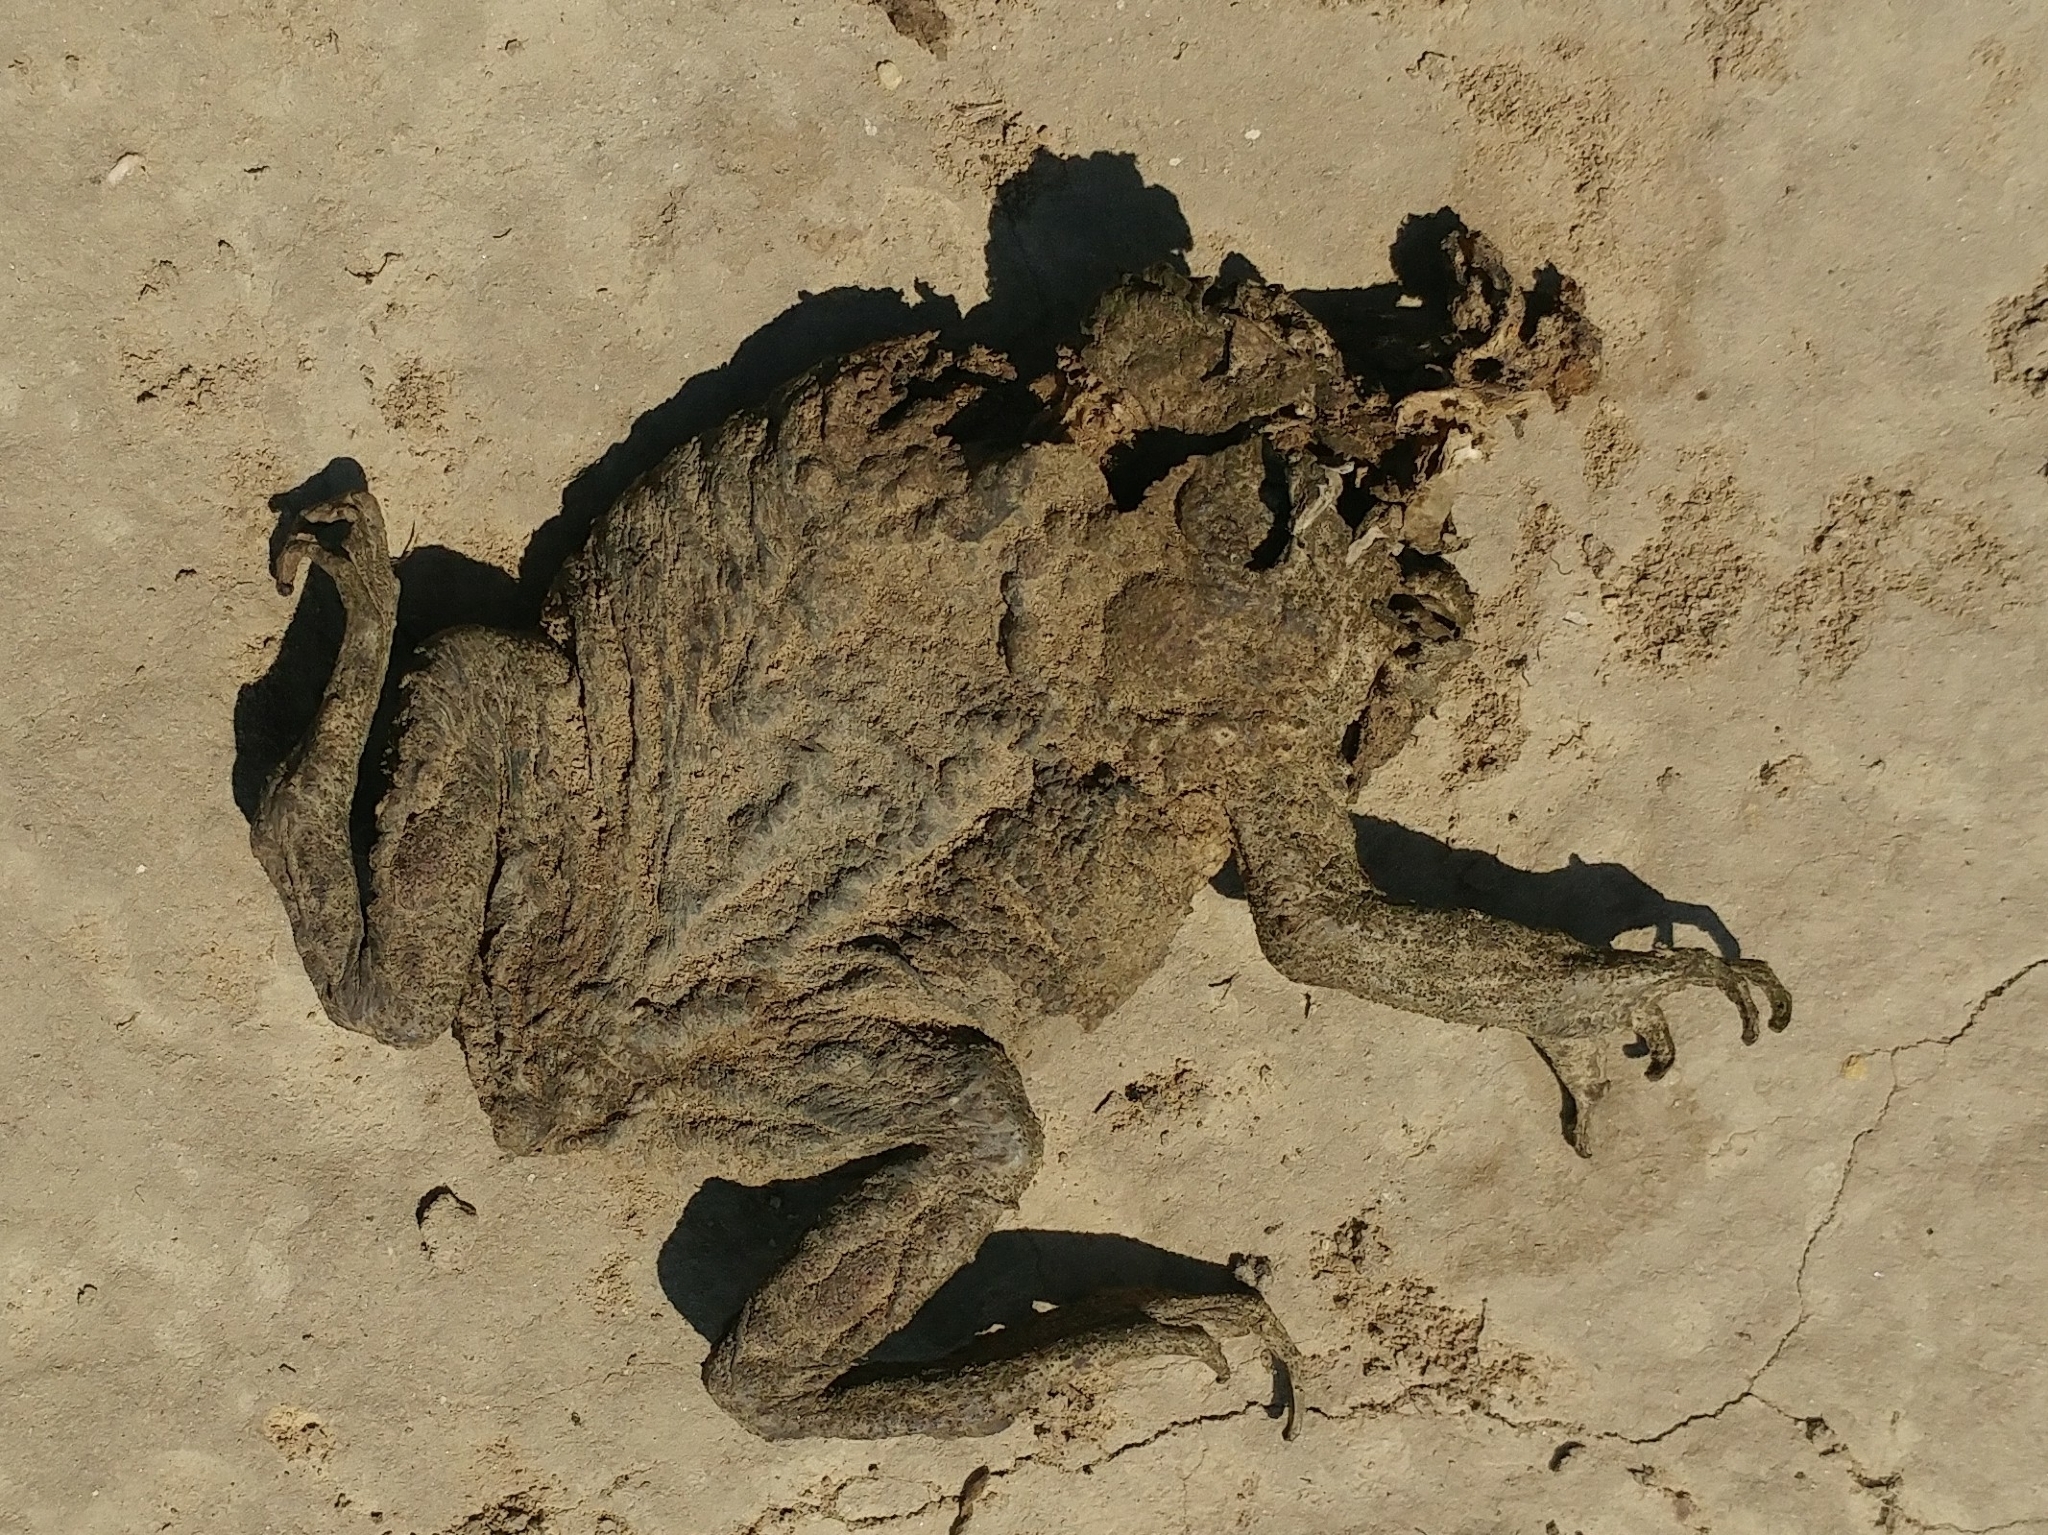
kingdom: Animalia
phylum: Chordata
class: Amphibia
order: Anura
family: Bufonidae
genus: Anaxyrus
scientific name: Anaxyrus boreas
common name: Western toad
